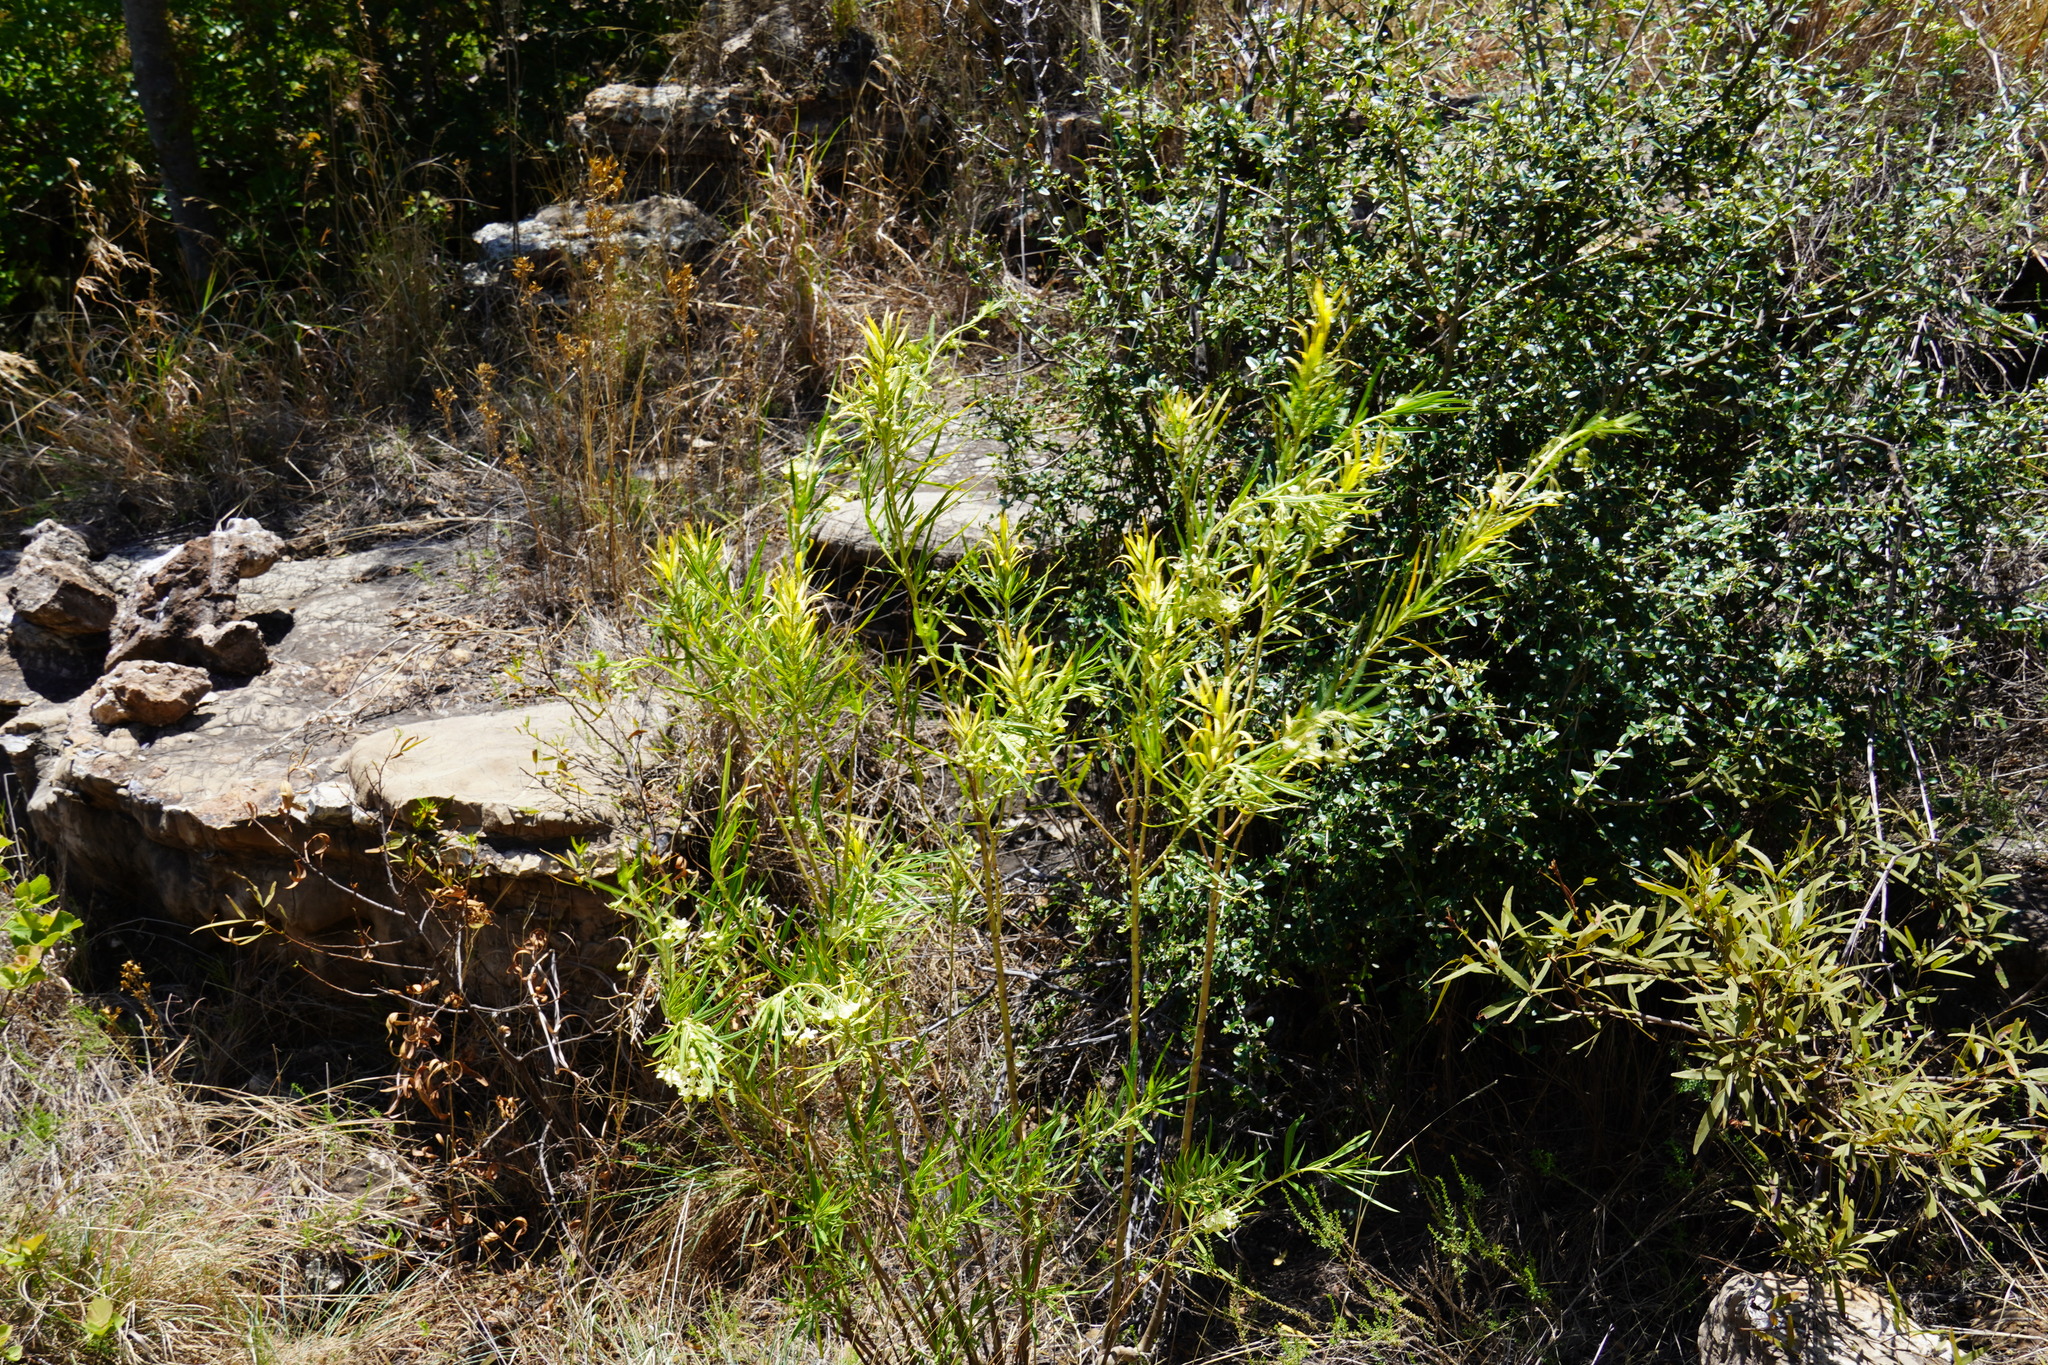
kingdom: Plantae
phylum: Tracheophyta
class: Magnoliopsida
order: Gentianales
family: Apocynaceae
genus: Gomphocarpus
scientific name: Gomphocarpus fruticosus
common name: Milkweed
